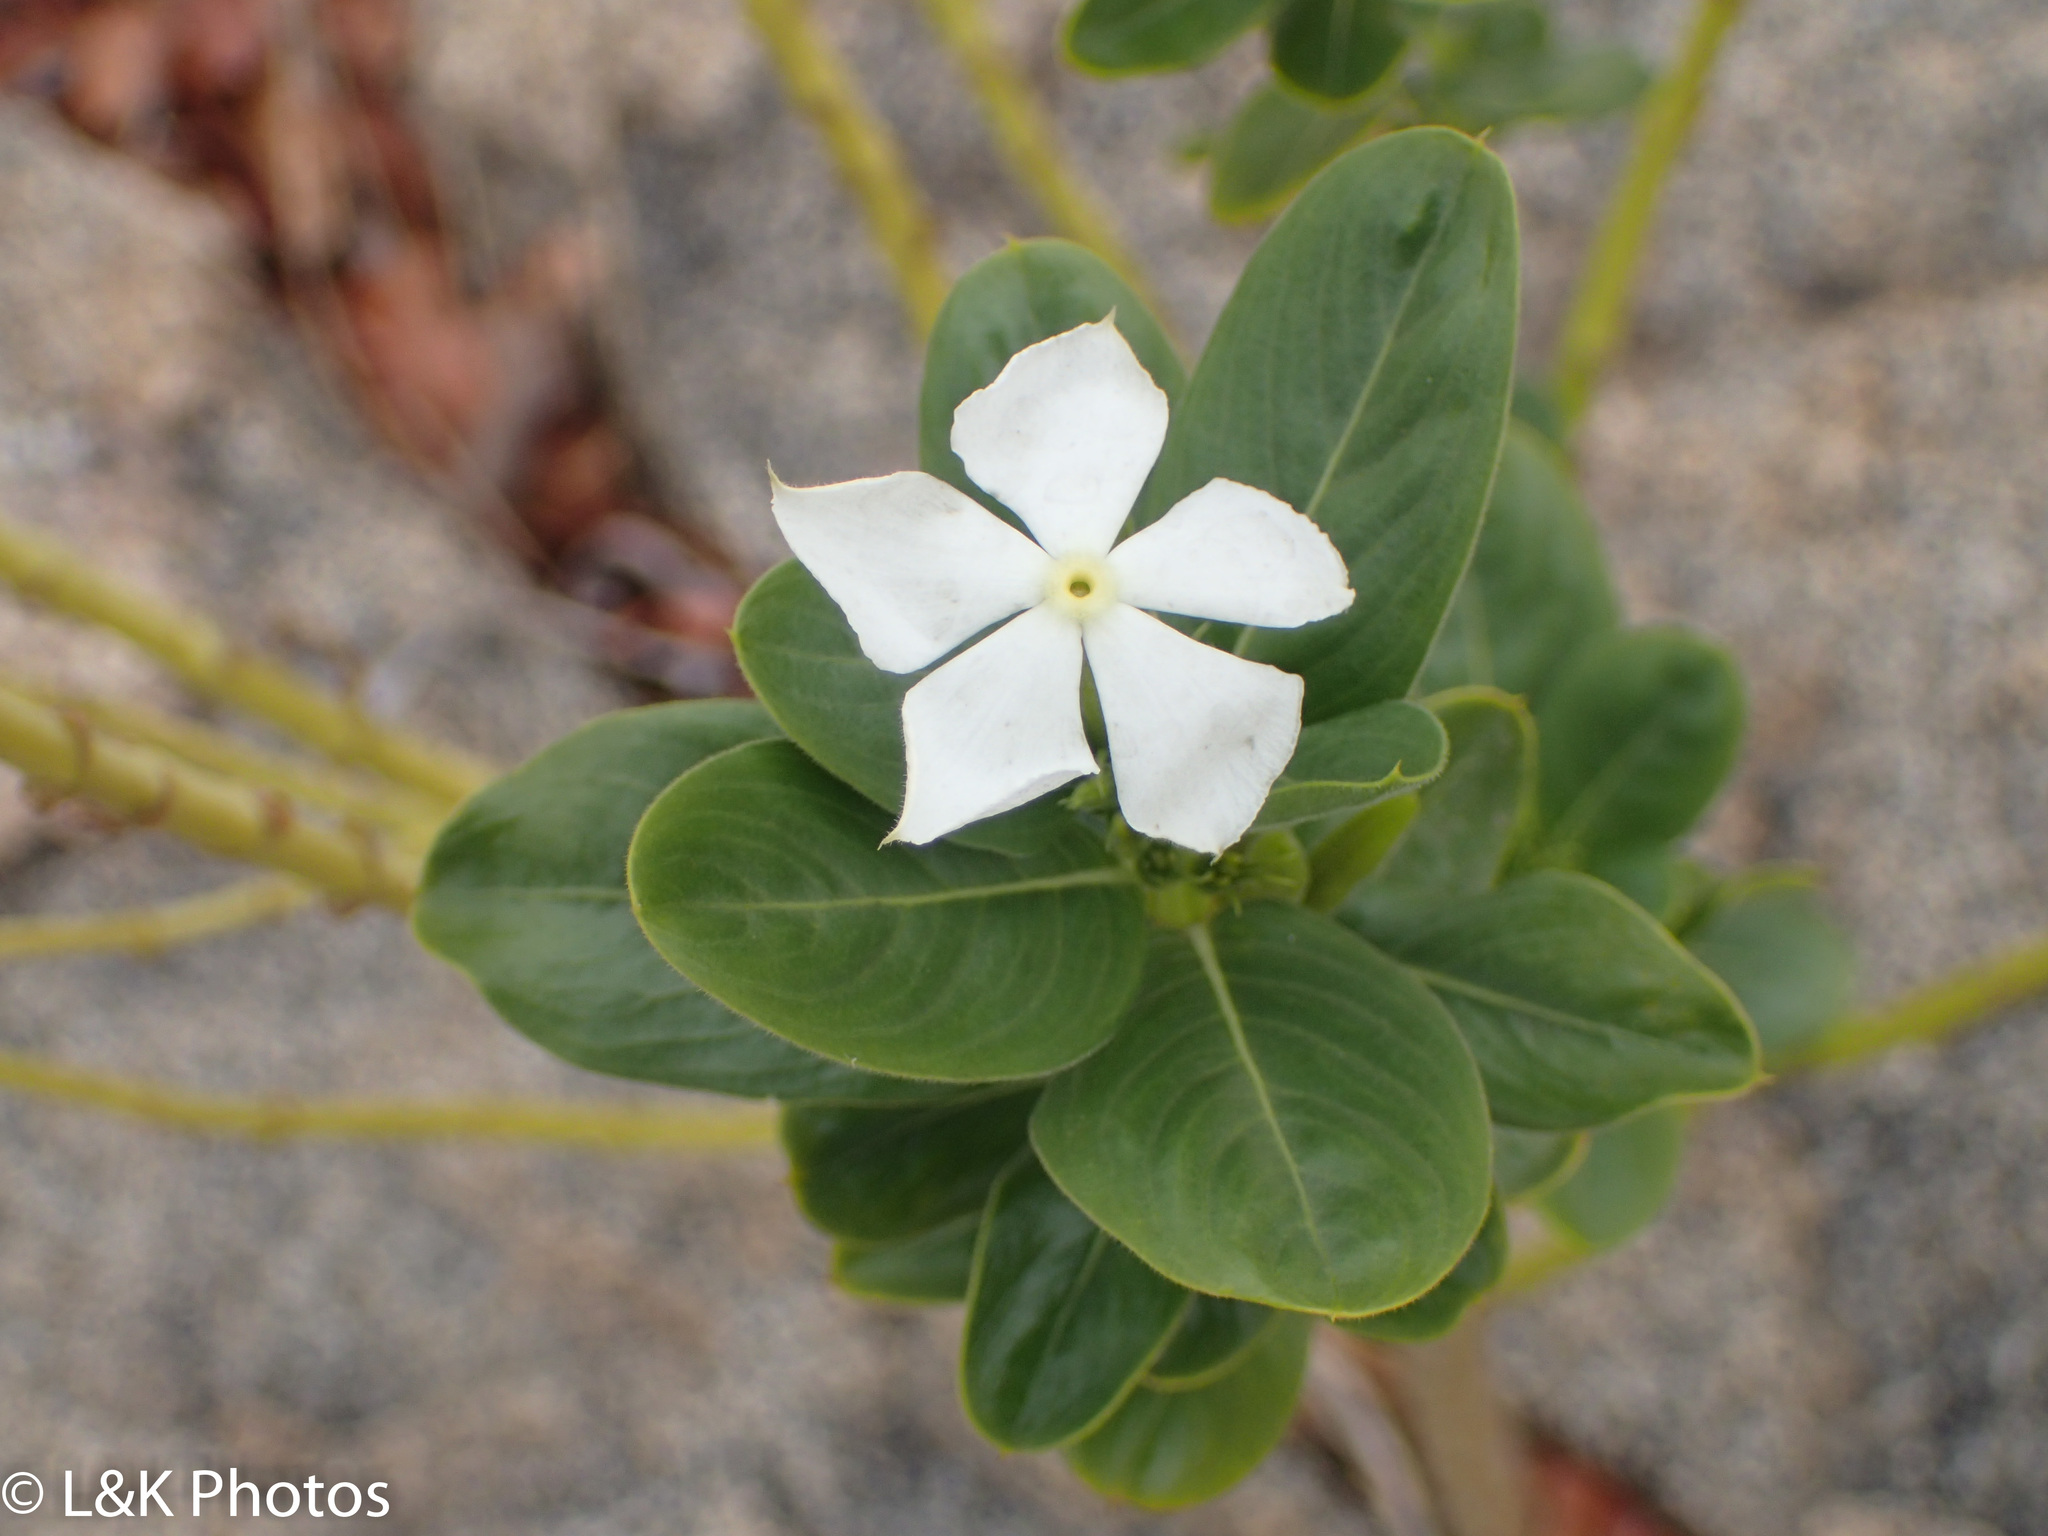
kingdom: Plantae
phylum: Tracheophyta
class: Magnoliopsida
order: Gentianales
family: Apocynaceae
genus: Catharanthus
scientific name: Catharanthus roseus
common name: Madagascar periwinkle
